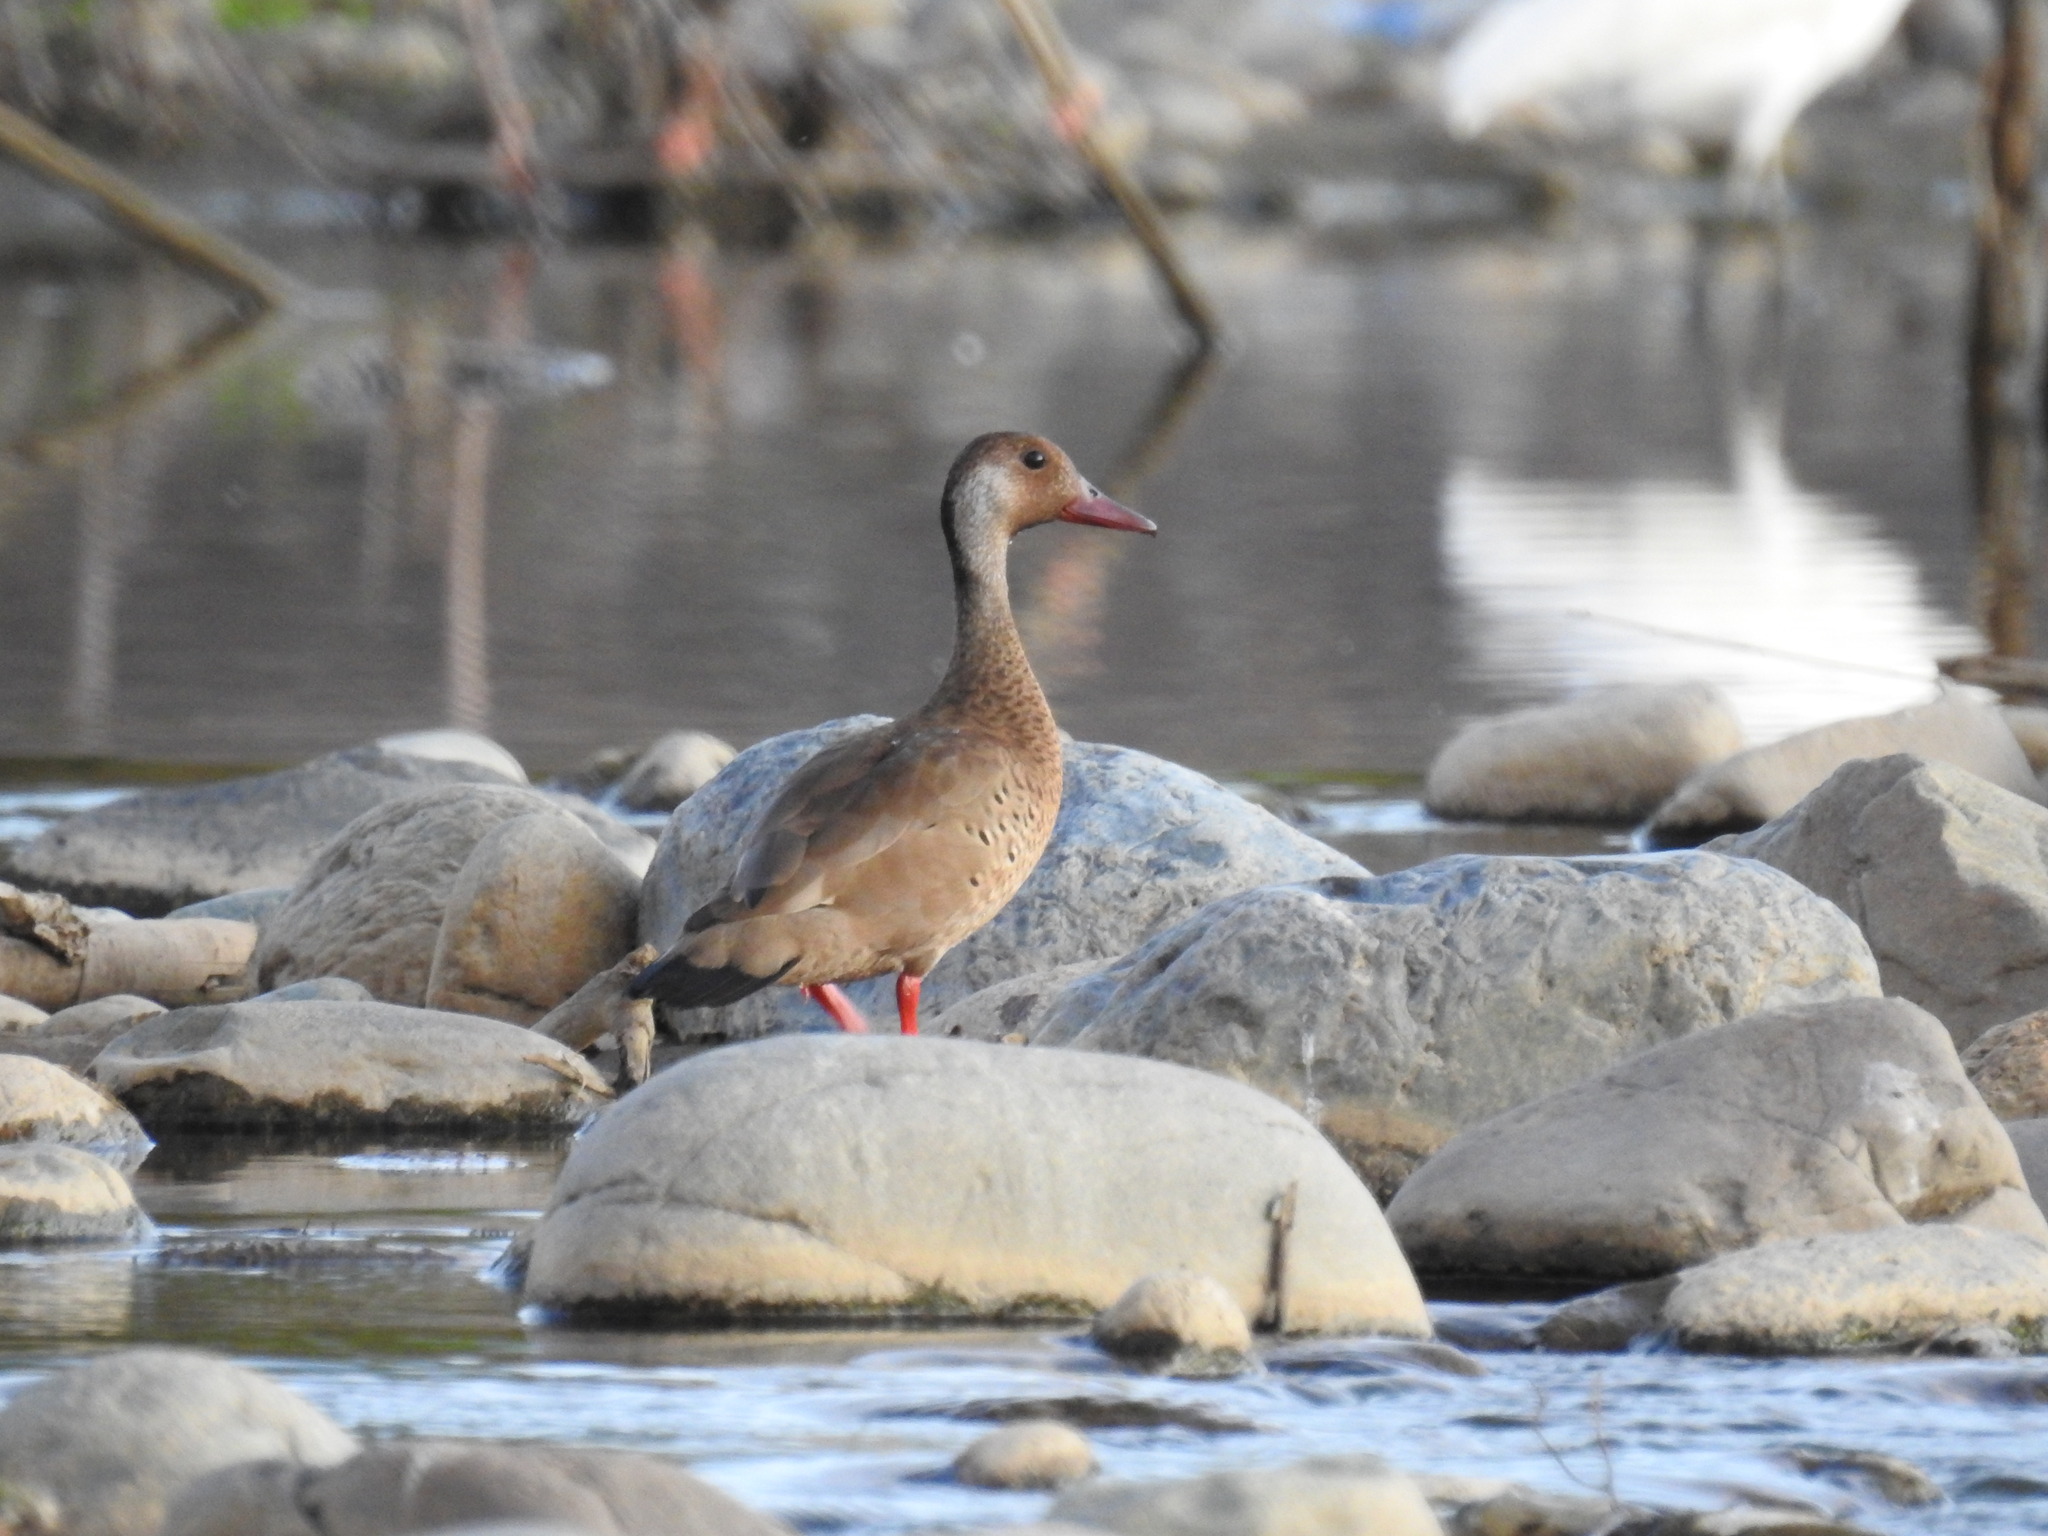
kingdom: Animalia
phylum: Chordata
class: Aves
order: Anseriformes
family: Anatidae
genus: Amazonetta
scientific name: Amazonetta brasiliensis
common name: Brazilian teal
